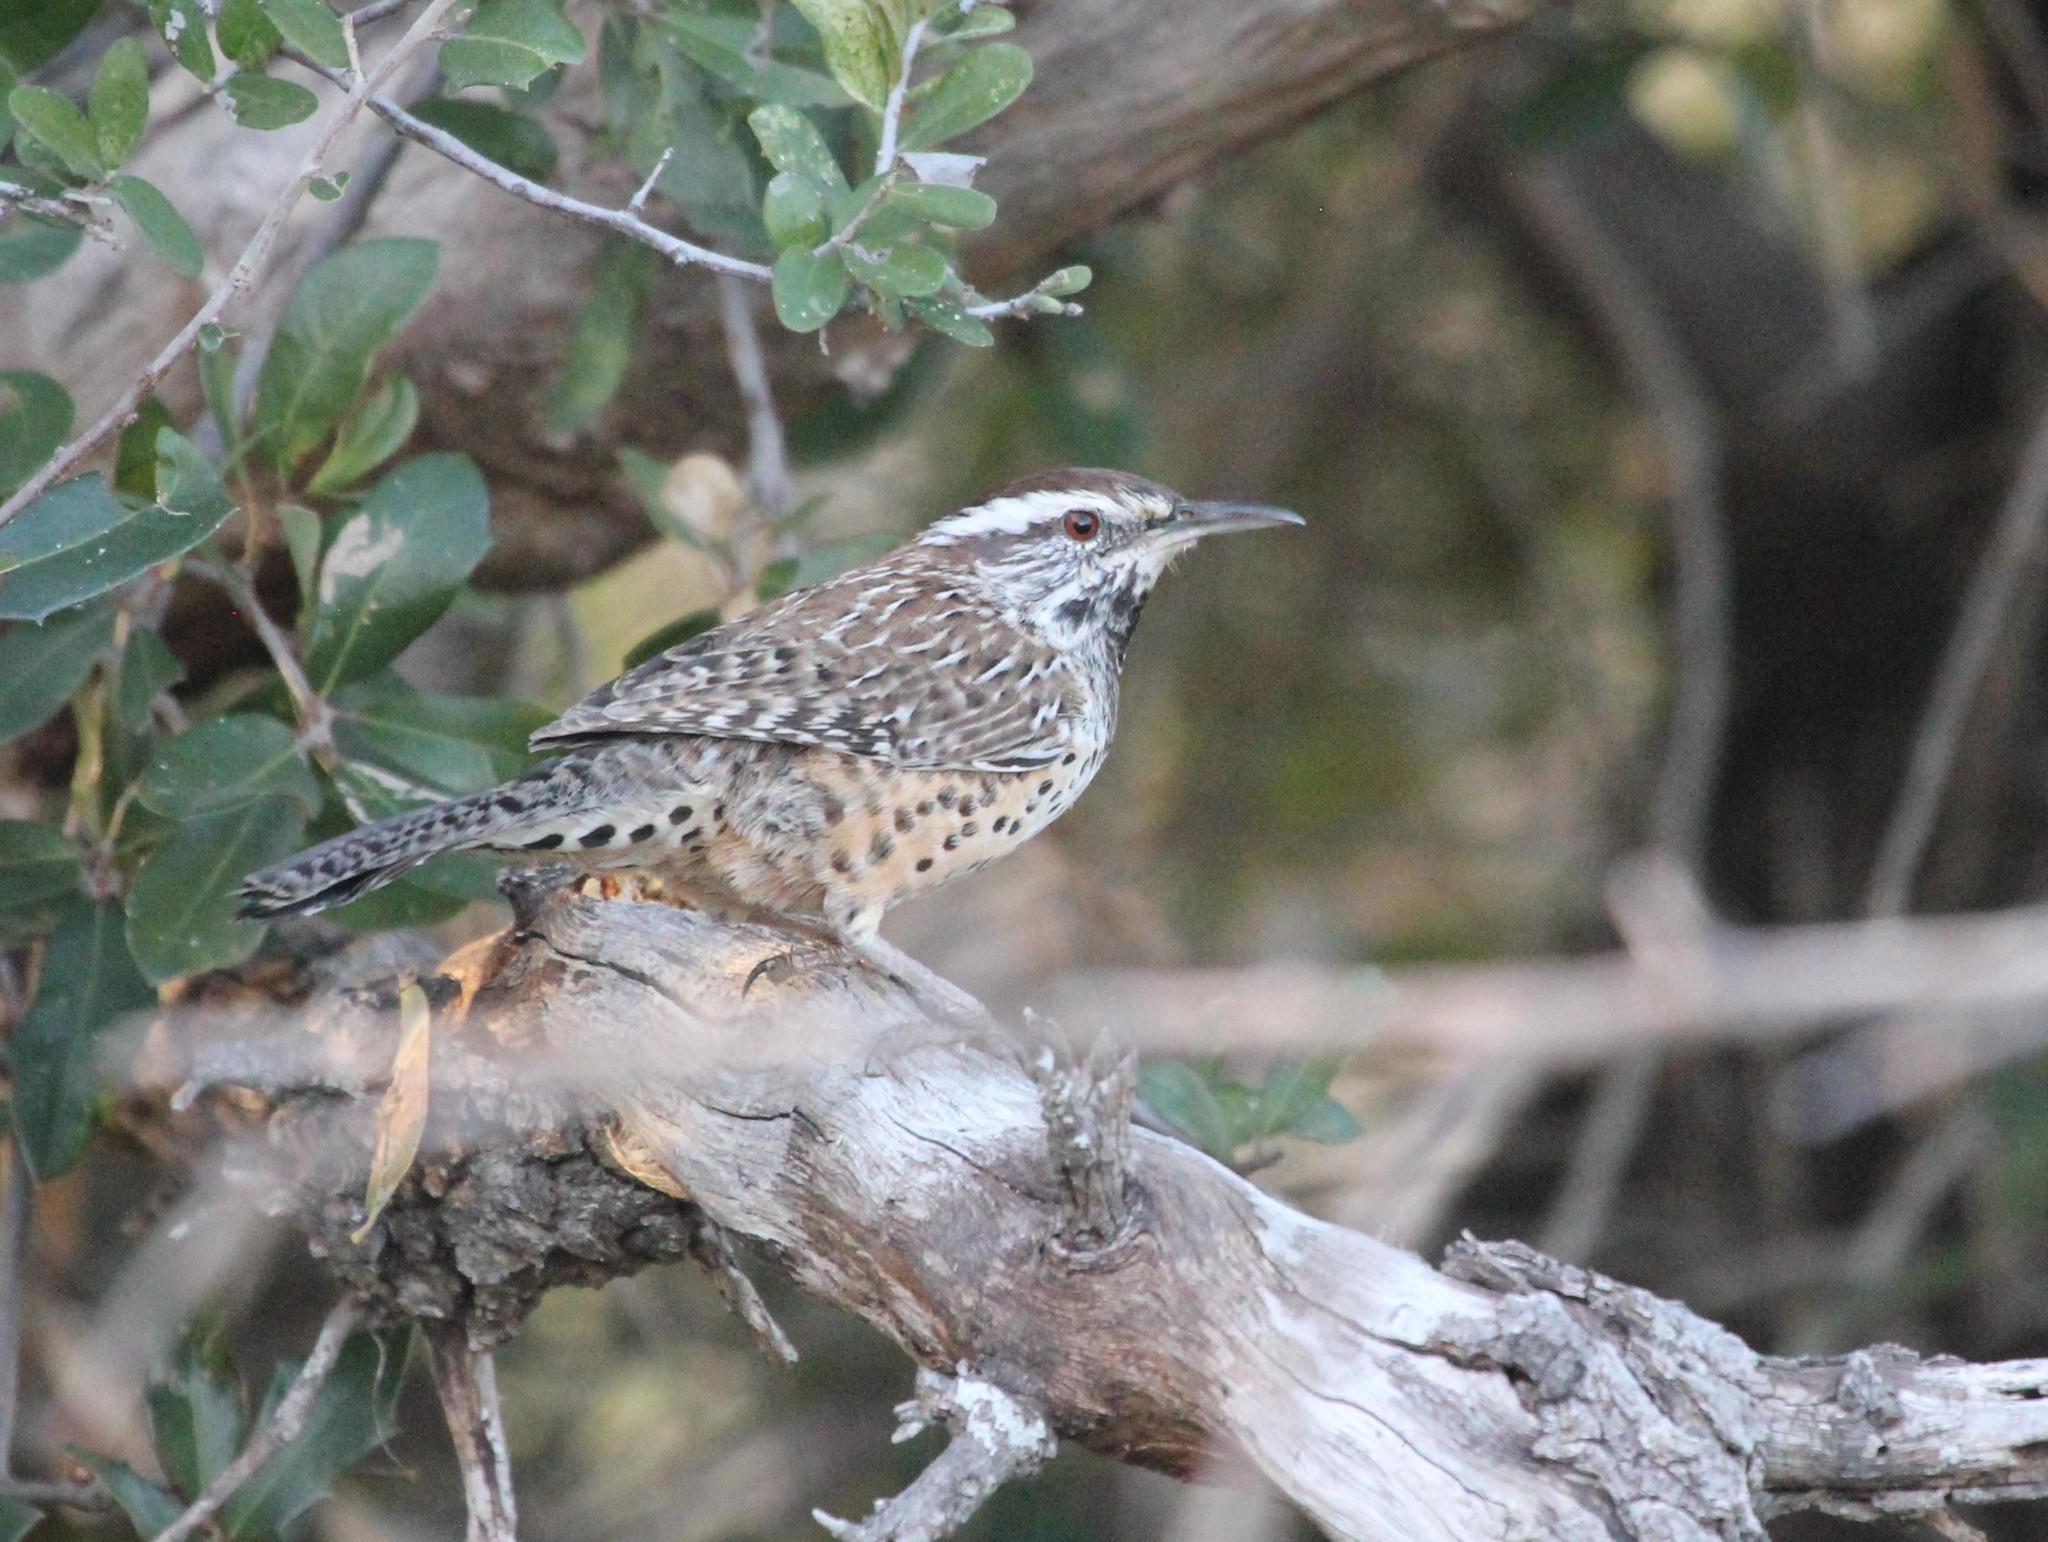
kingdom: Animalia
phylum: Chordata
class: Aves
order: Passeriformes
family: Troglodytidae
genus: Campylorhynchus
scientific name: Campylorhynchus brunneicapillus
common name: Cactus wren
